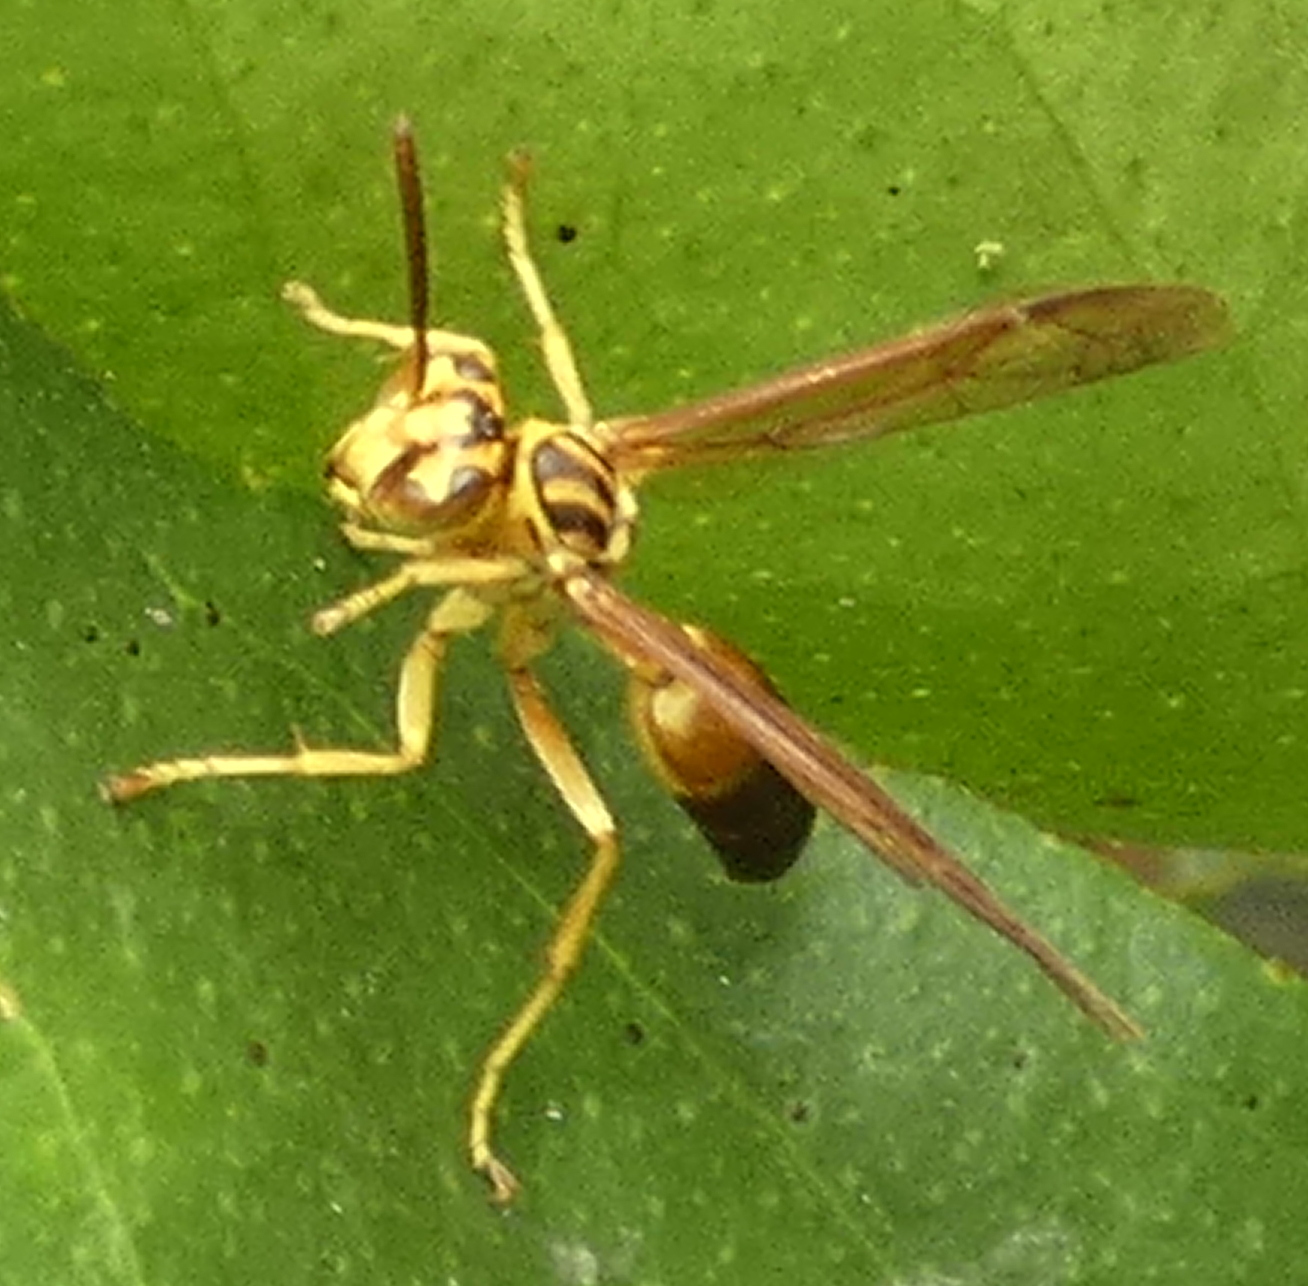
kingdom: Animalia
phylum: Arthropoda
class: Insecta
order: Hymenoptera
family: Vespidae
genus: Agelaia
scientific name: Agelaia pallipes
